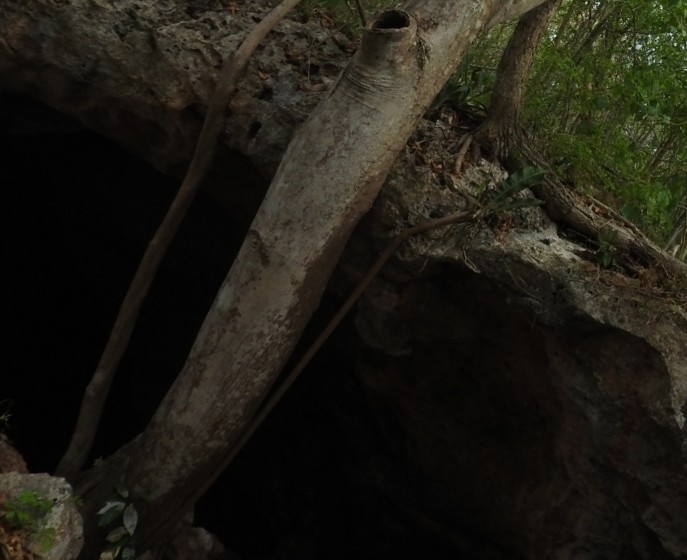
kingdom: Plantae
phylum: Tracheophyta
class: Magnoliopsida
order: Rosales
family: Moraceae
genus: Ficus
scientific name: Ficus cotinifolia
